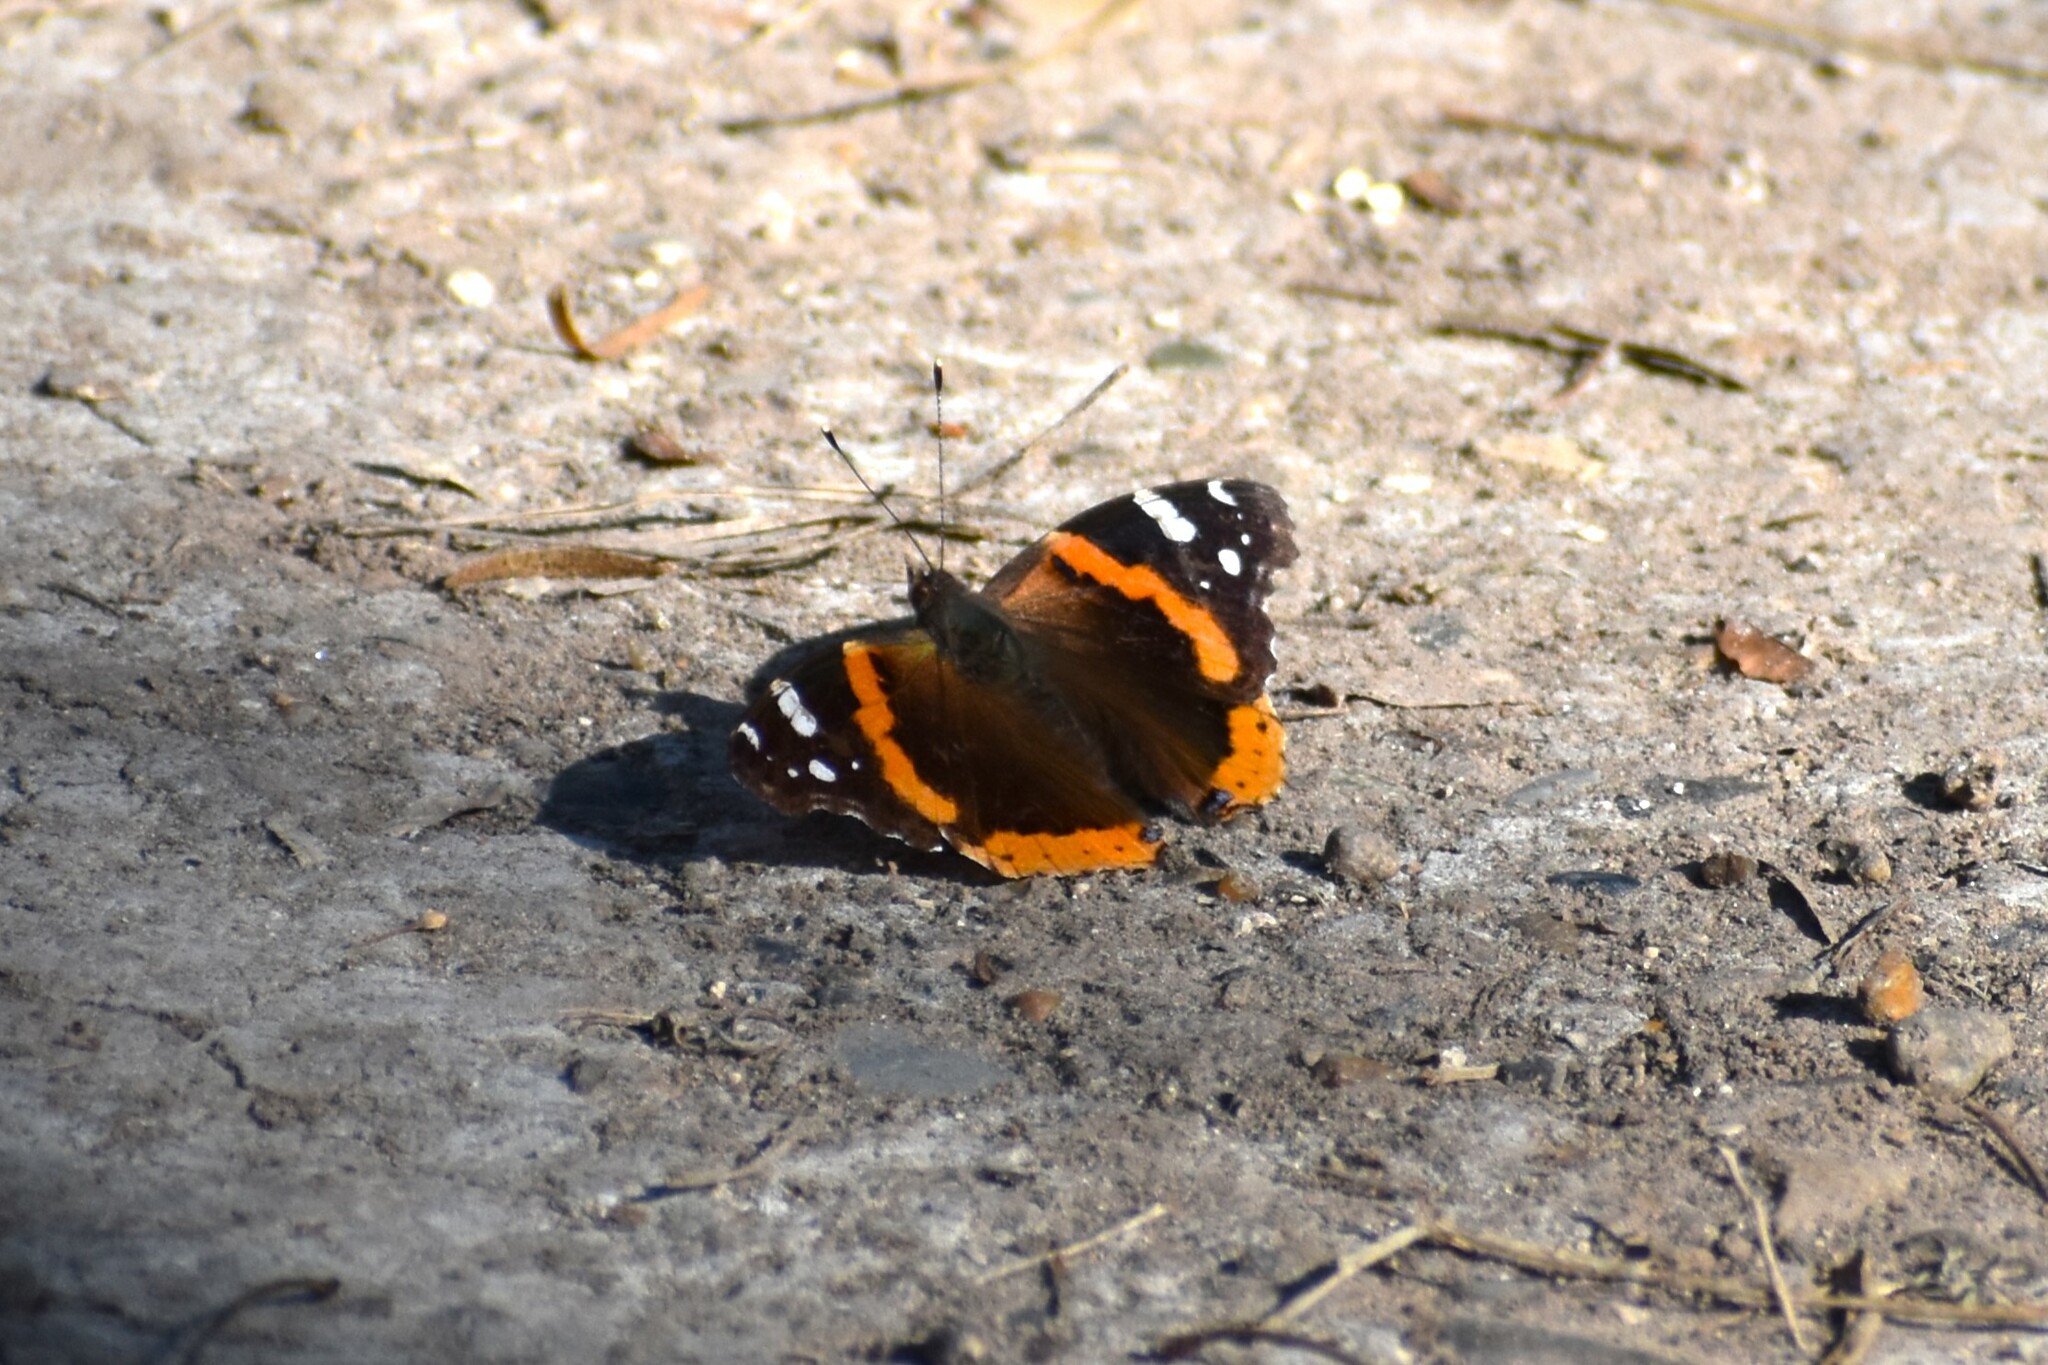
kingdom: Animalia
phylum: Arthropoda
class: Insecta
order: Lepidoptera
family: Nymphalidae
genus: Vanessa
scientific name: Vanessa atalanta
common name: Red admiral
